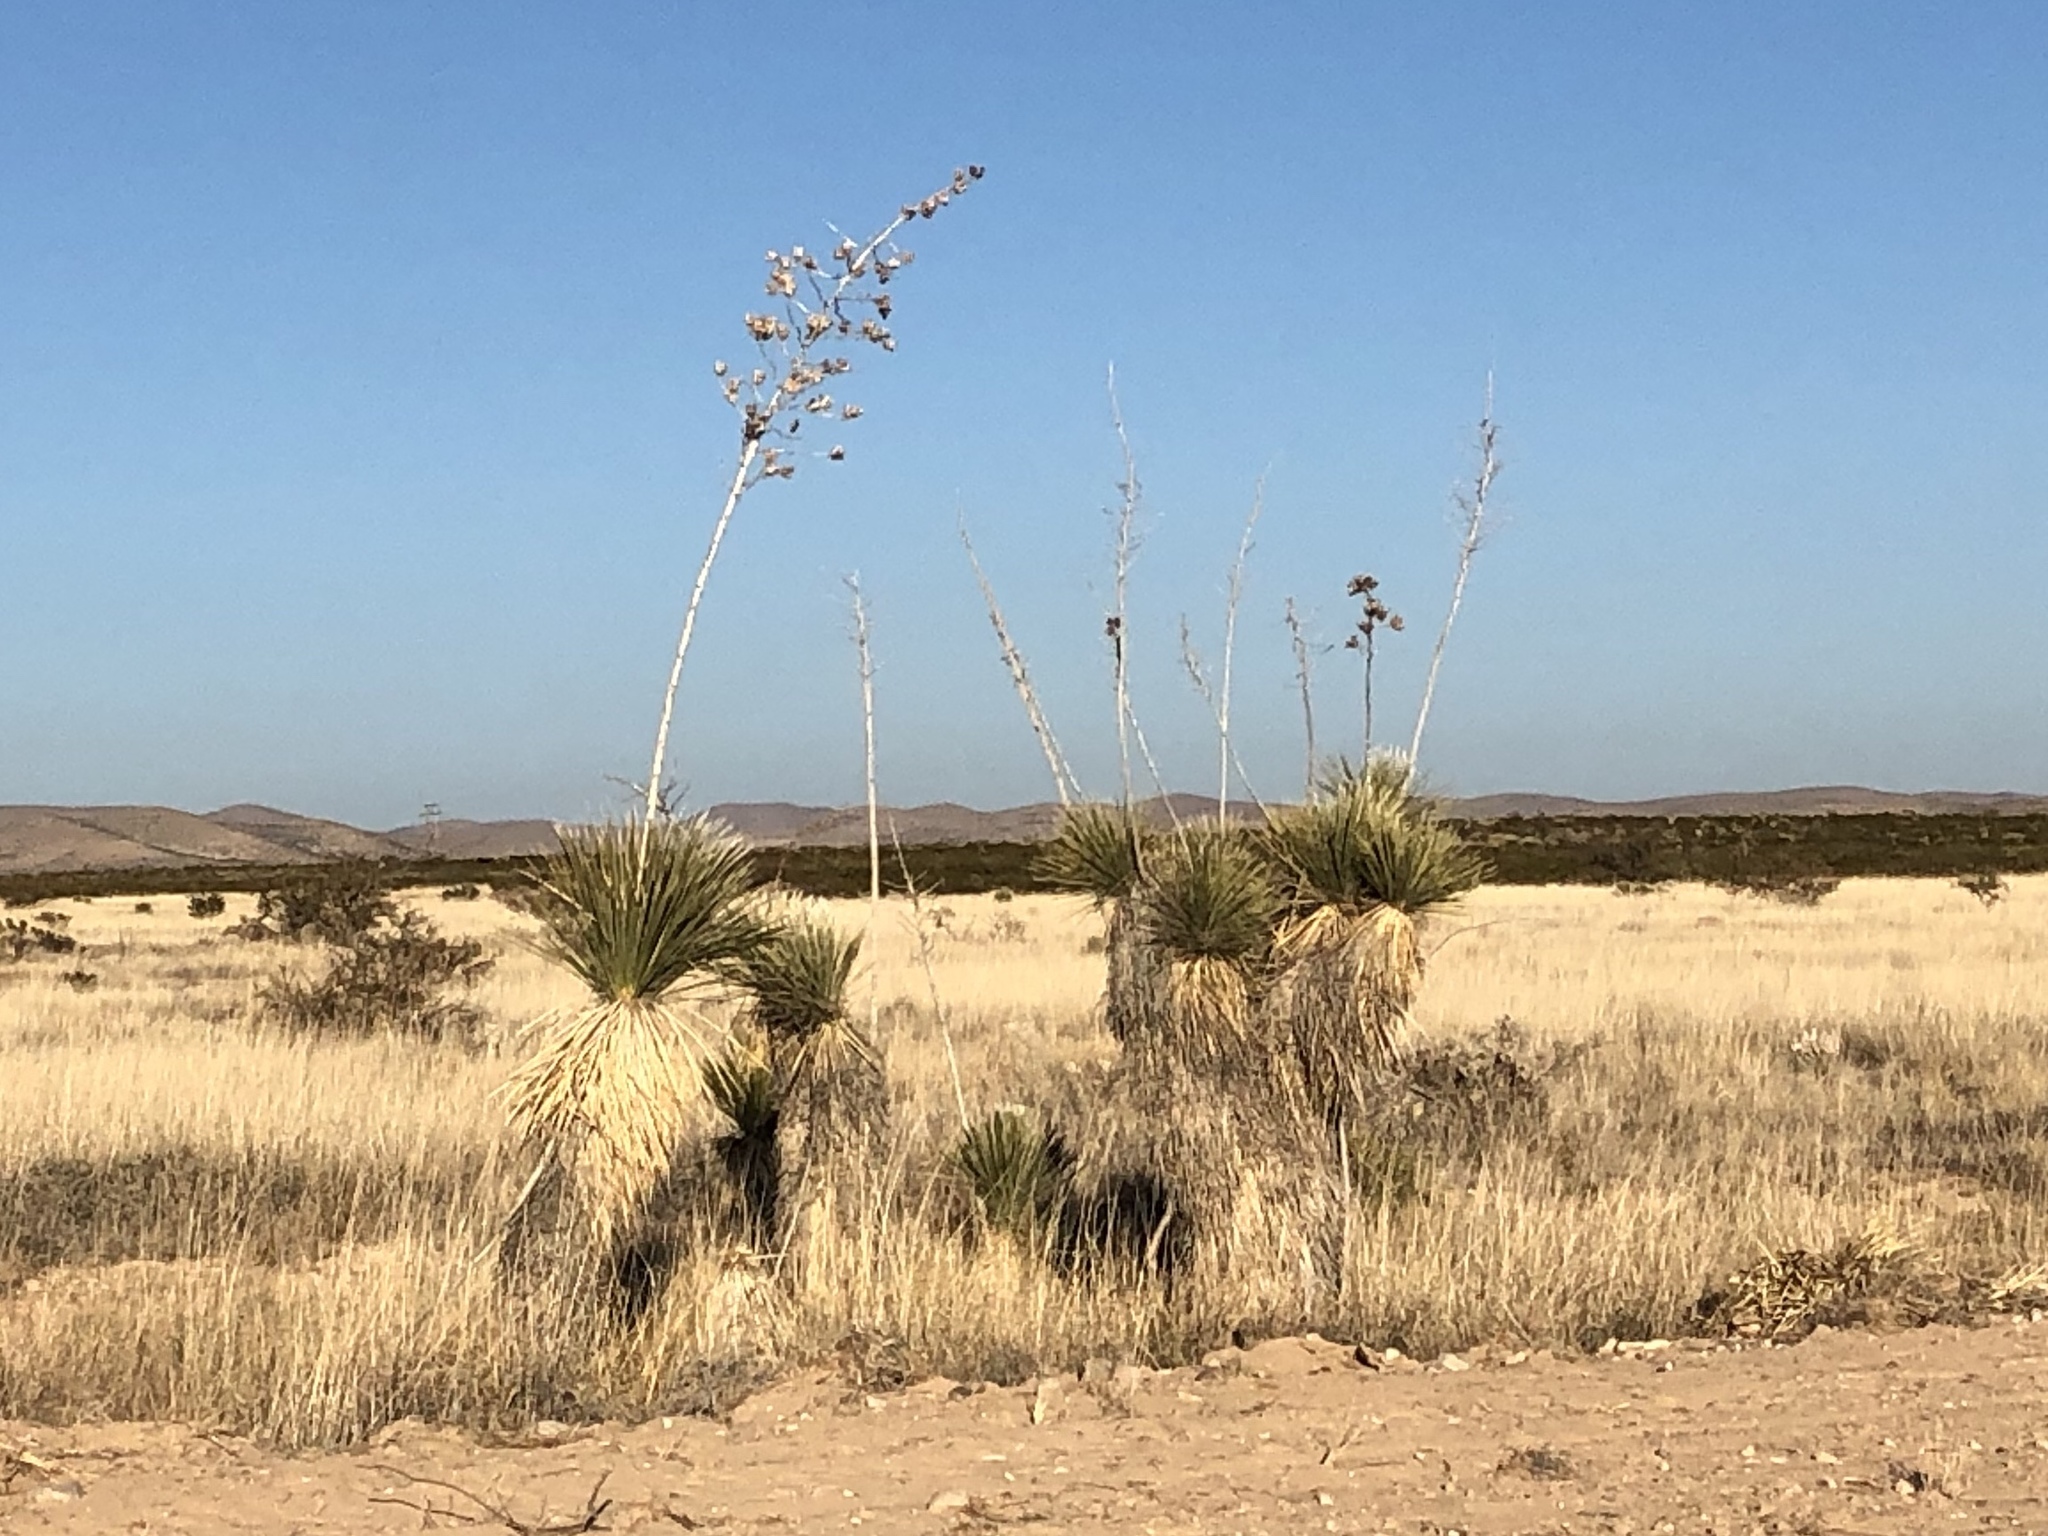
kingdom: Plantae
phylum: Tracheophyta
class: Liliopsida
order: Asparagales
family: Asparagaceae
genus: Yucca
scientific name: Yucca elata
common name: Palmella
